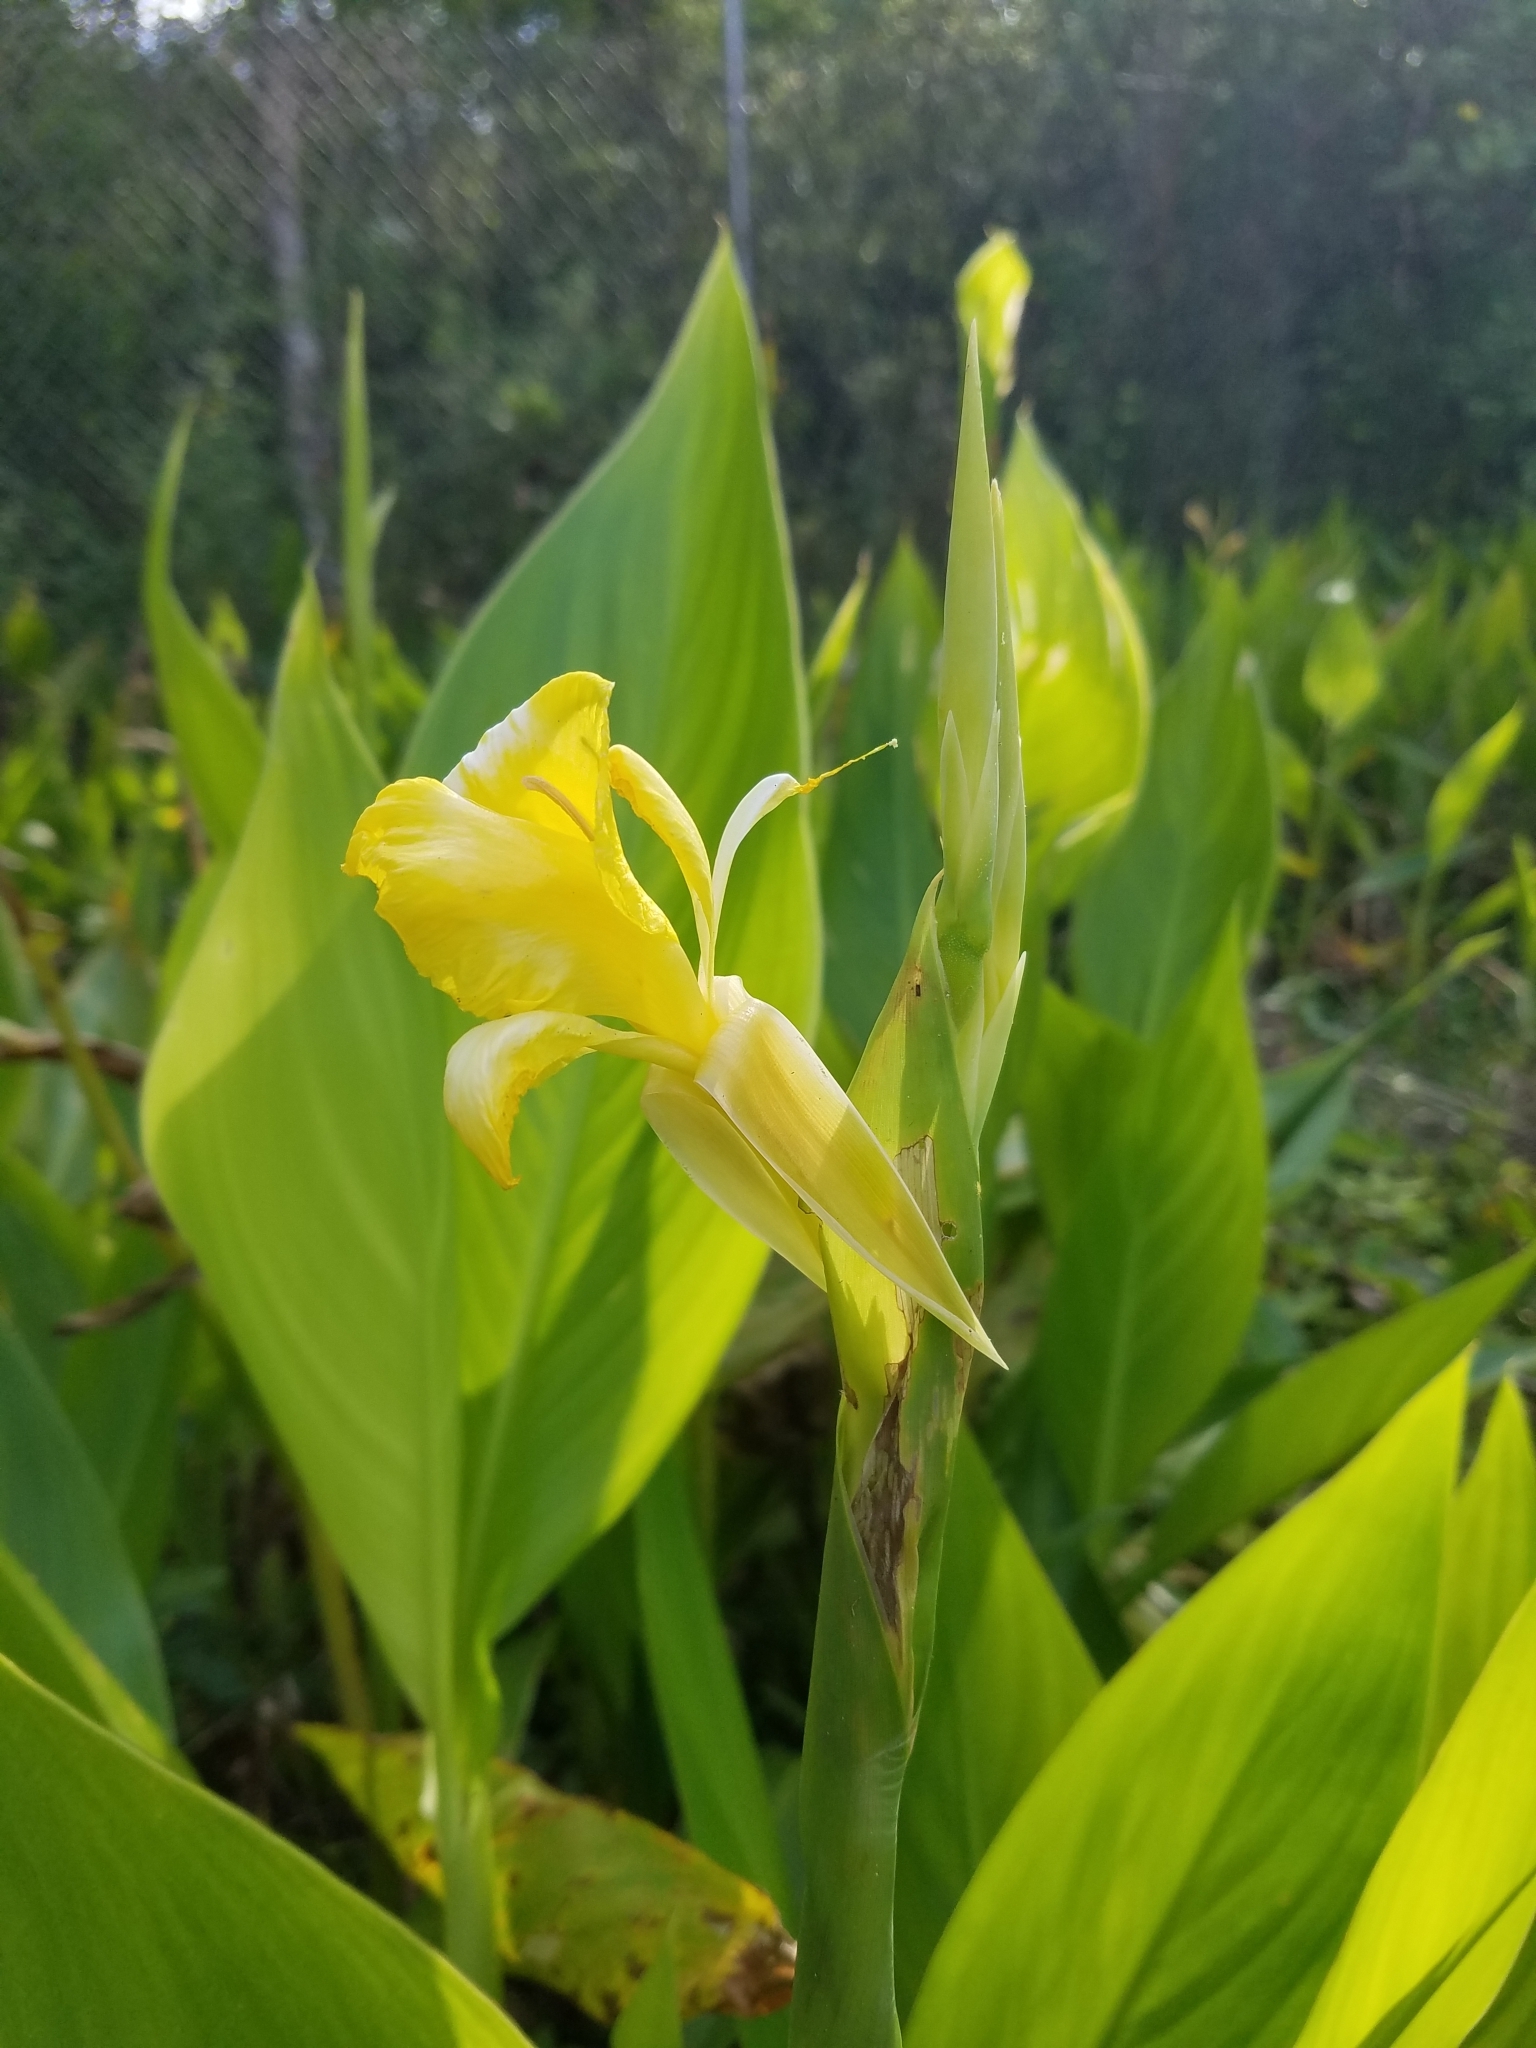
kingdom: Plantae
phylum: Tracheophyta
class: Liliopsida
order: Zingiberales
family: Cannaceae
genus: Canna
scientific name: Canna flaccida
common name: Bandana-of-the-everglades
